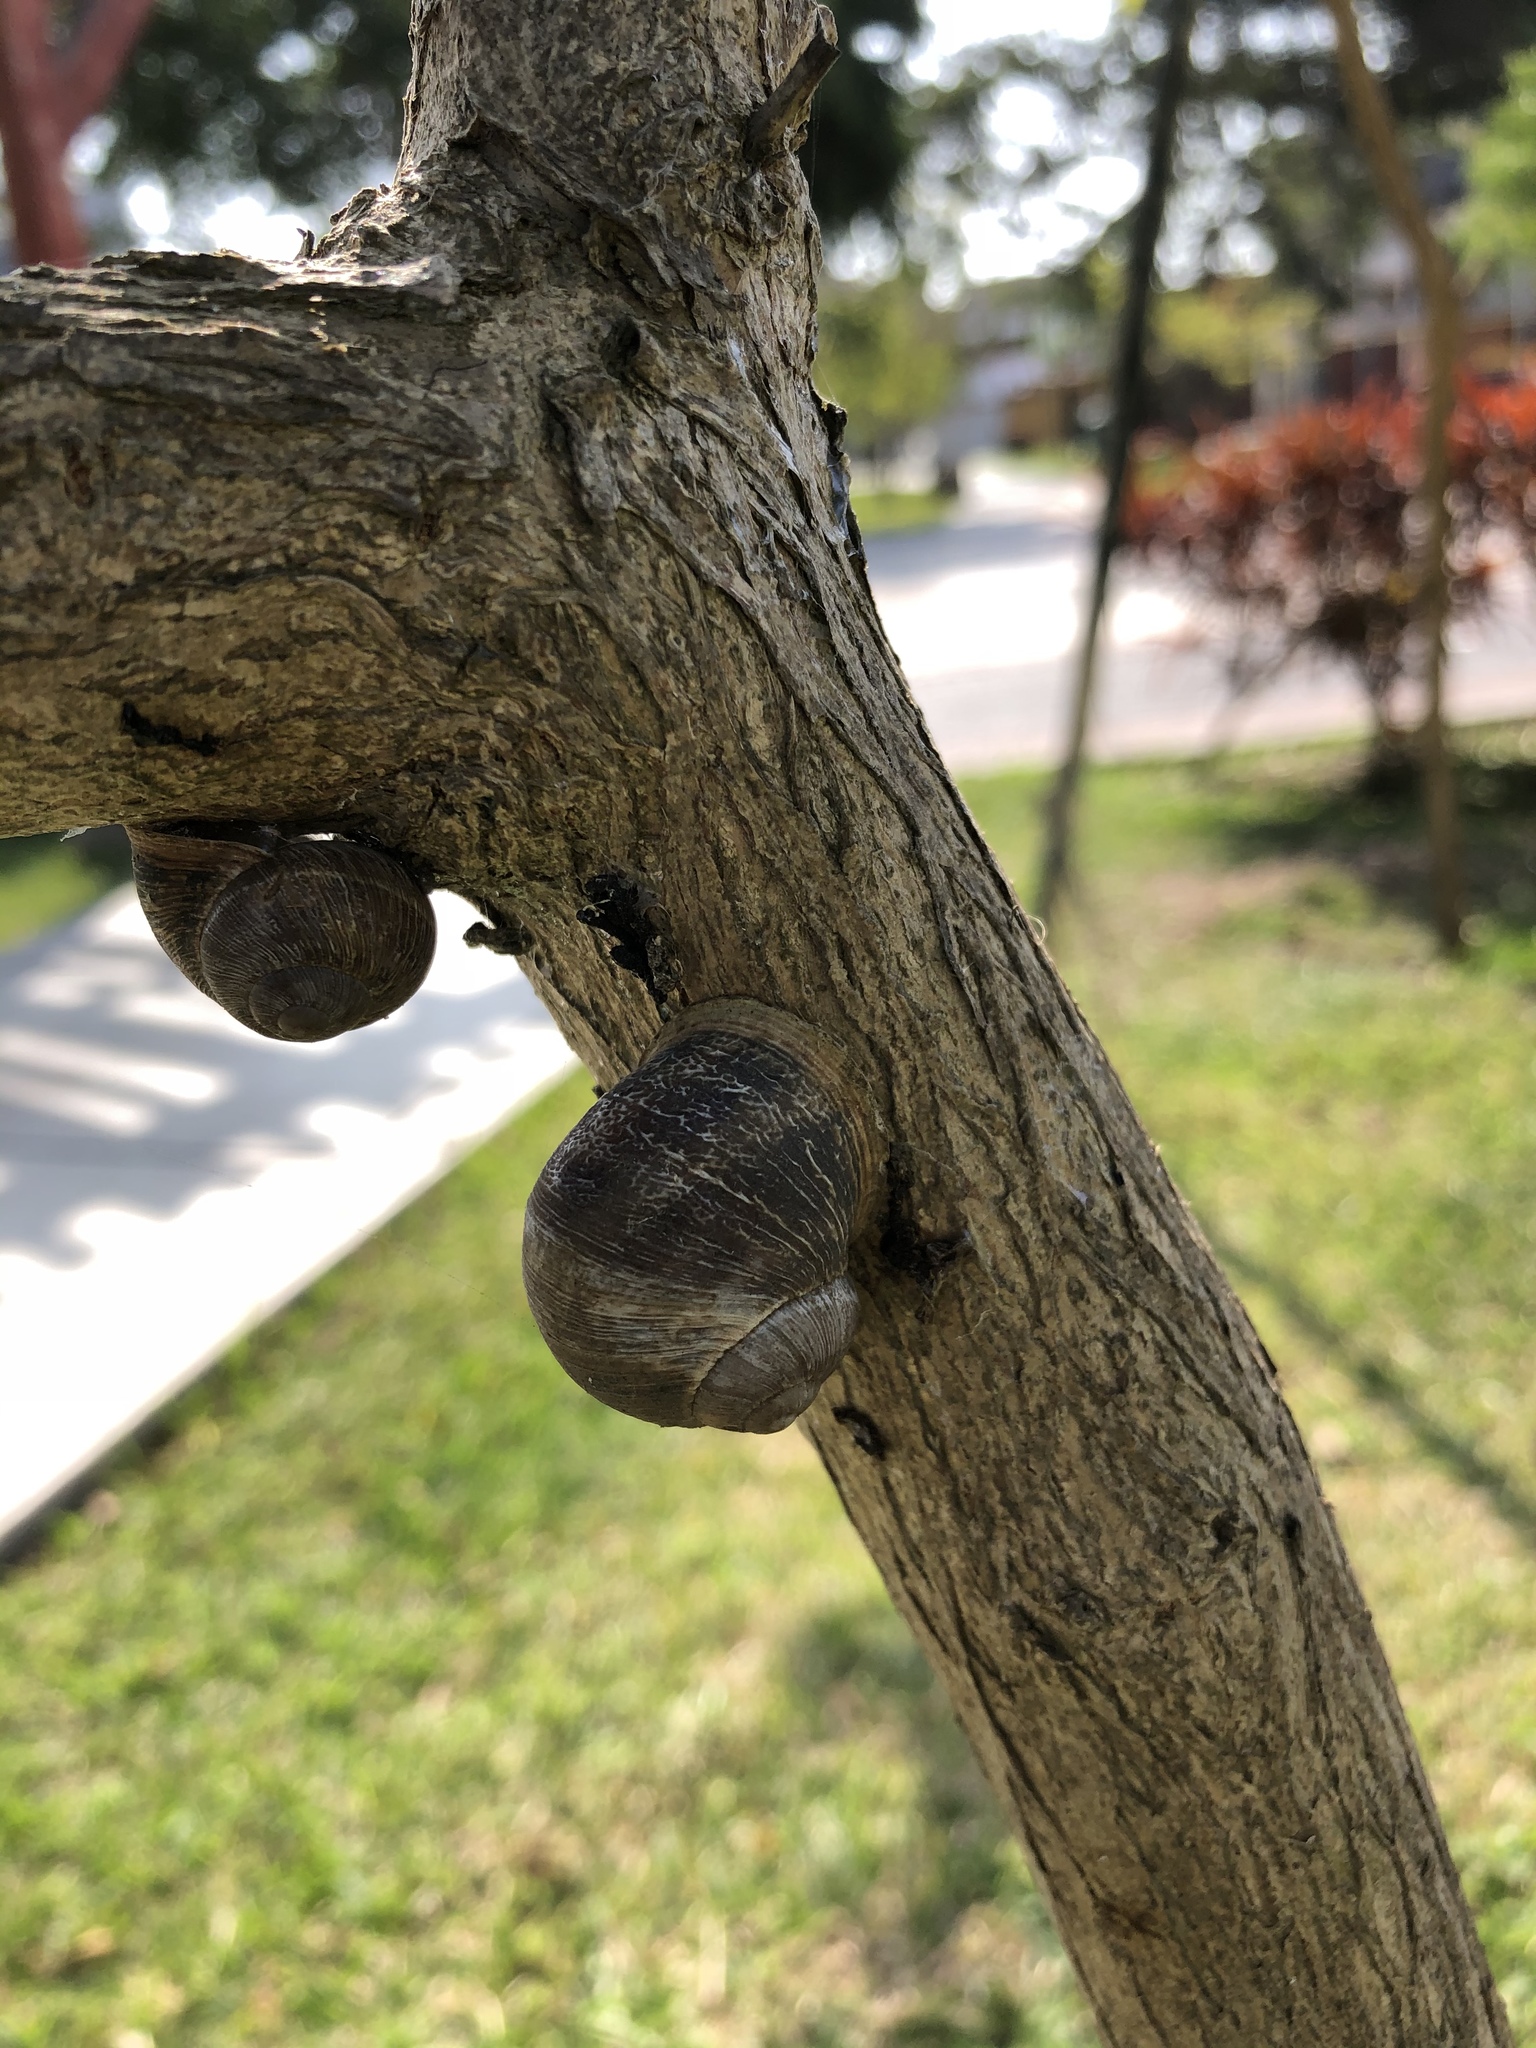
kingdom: Animalia
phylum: Mollusca
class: Gastropoda
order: Stylommatophora
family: Helicidae
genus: Cornu
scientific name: Cornu aspersum
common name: Brown garden snail
